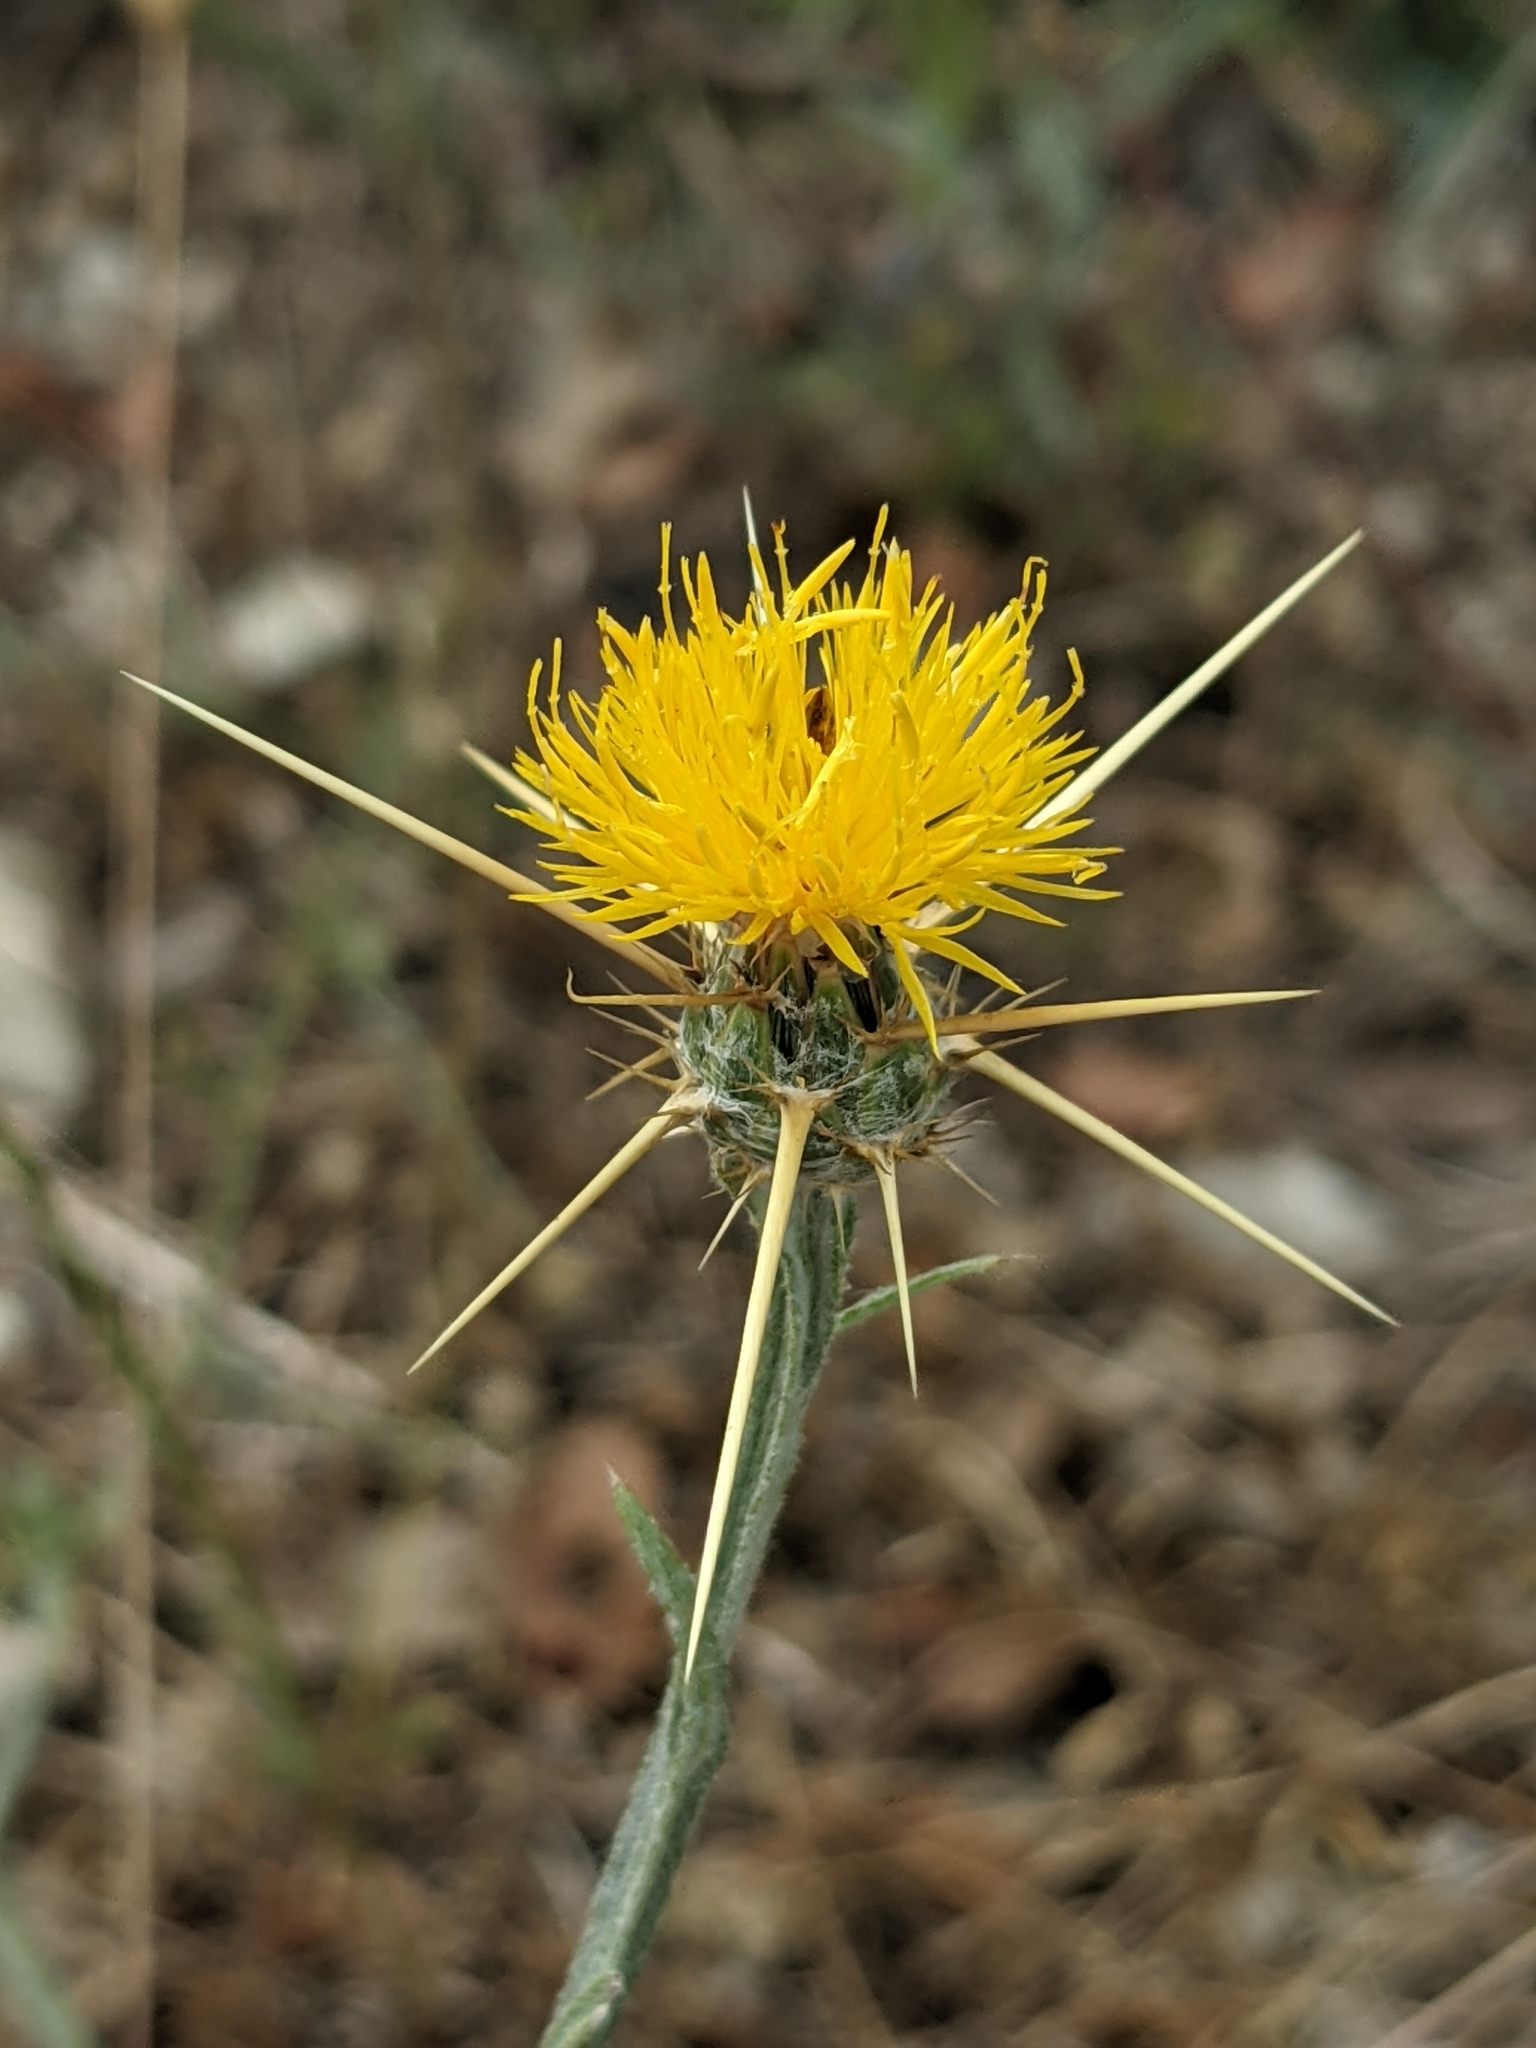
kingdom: Plantae
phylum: Tracheophyta
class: Magnoliopsida
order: Asterales
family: Asteraceae
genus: Centaurea
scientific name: Centaurea solstitialis
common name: Yellow star-thistle
